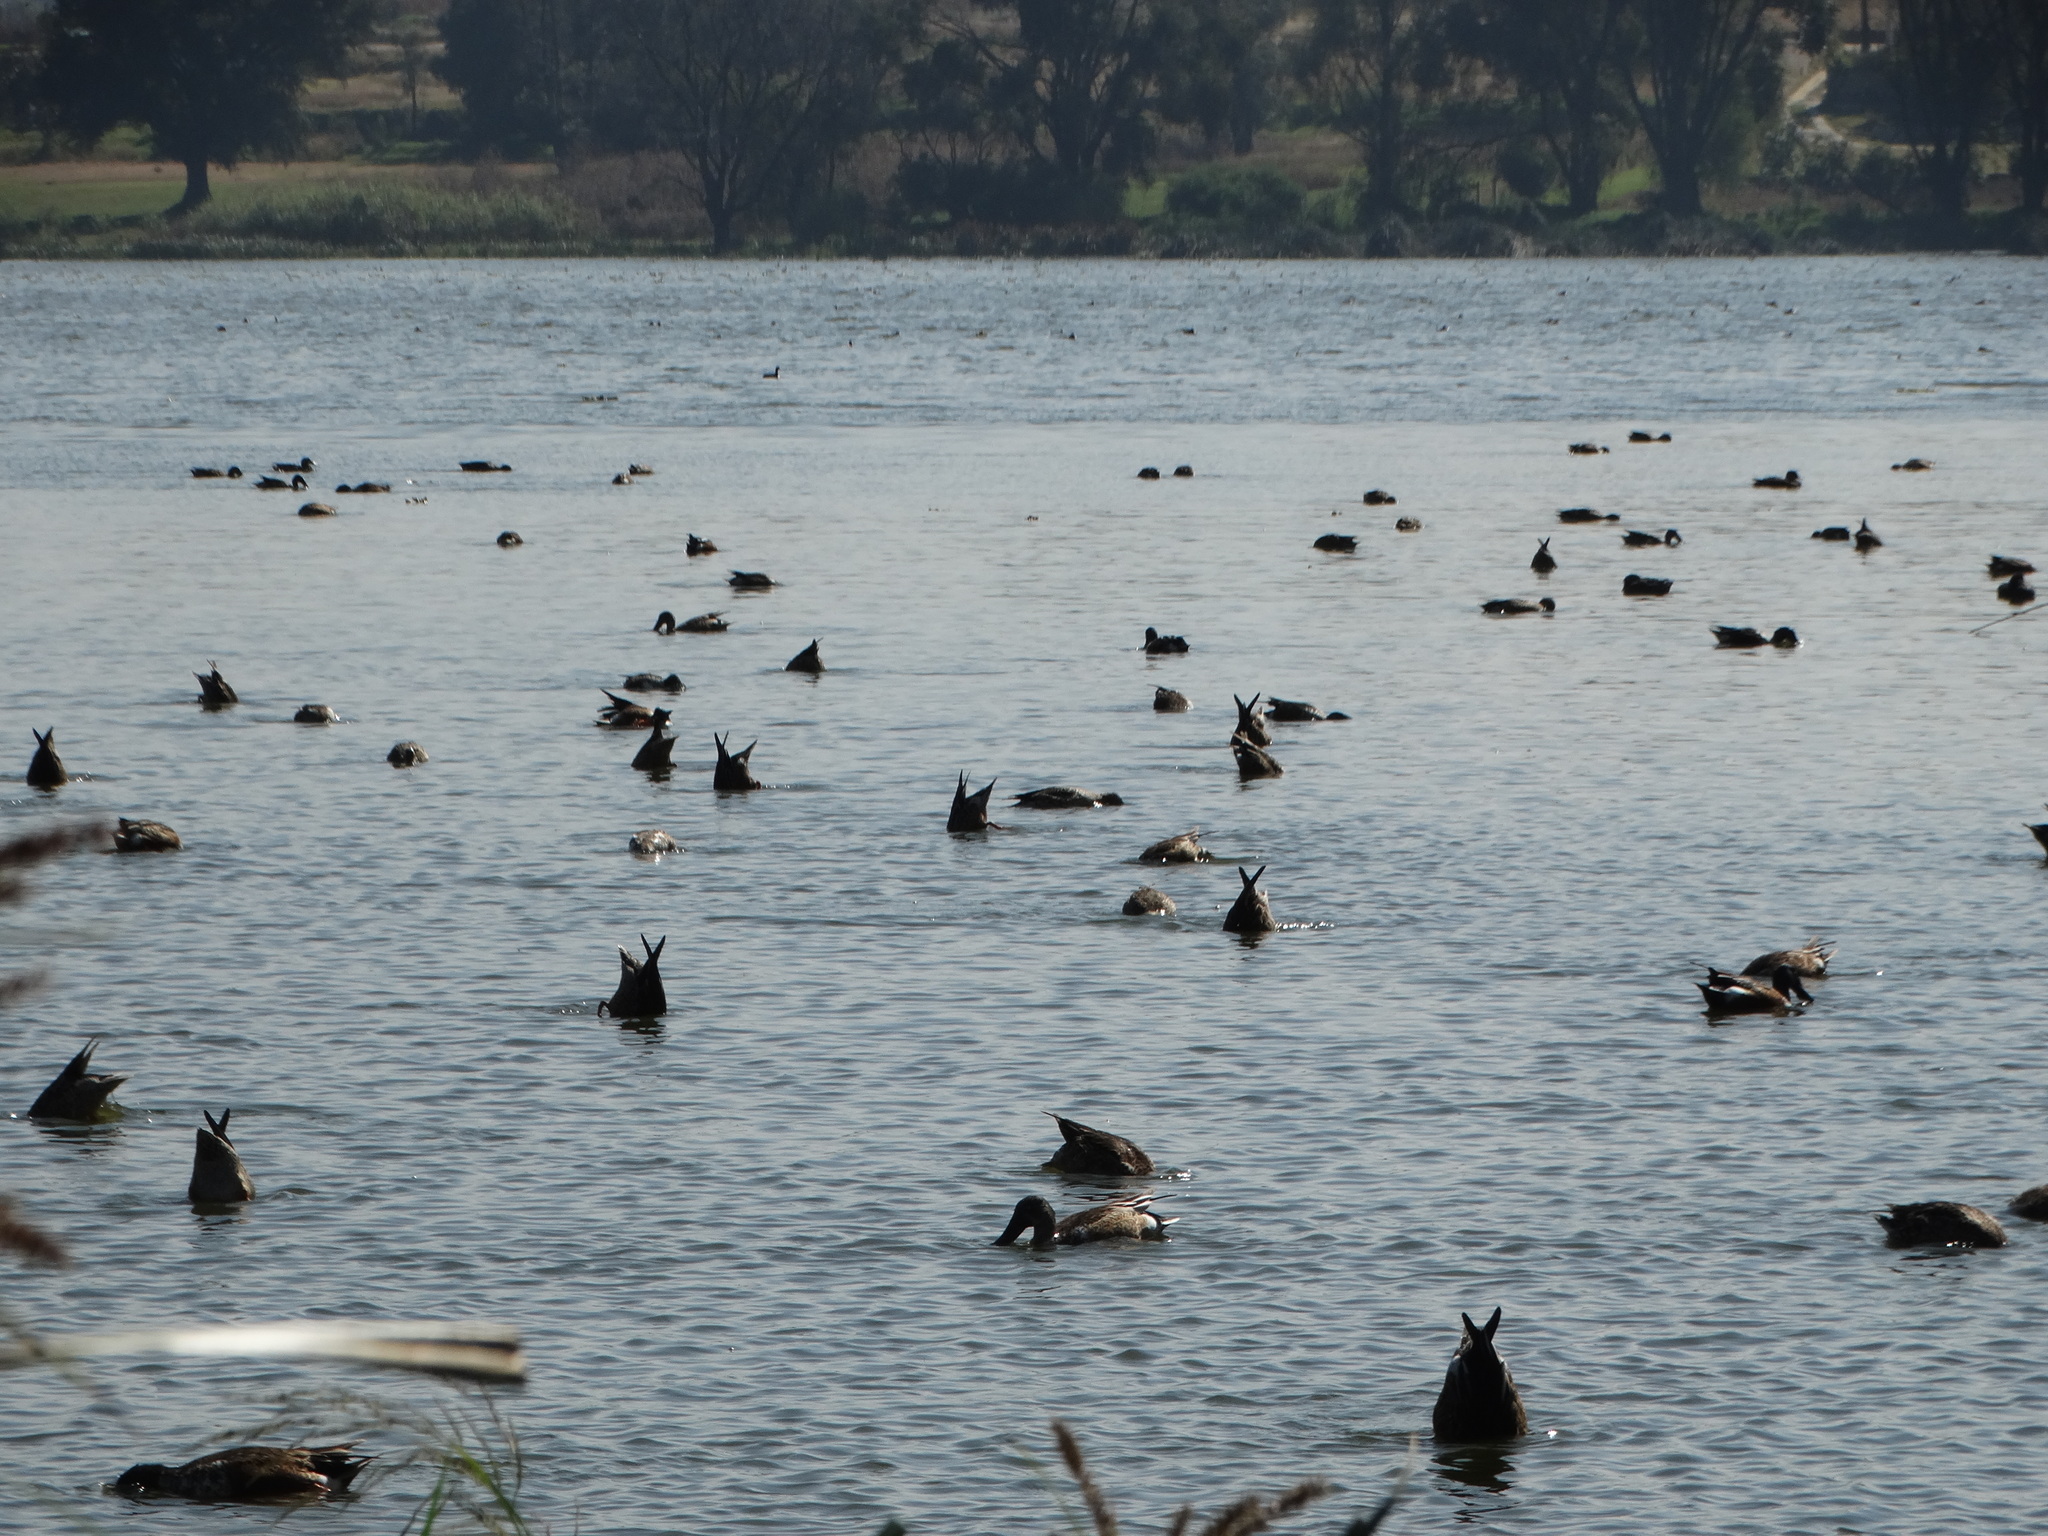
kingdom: Animalia
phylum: Chordata
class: Aves
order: Anseriformes
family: Anatidae
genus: Spatula
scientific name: Spatula clypeata
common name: Northern shoveler
